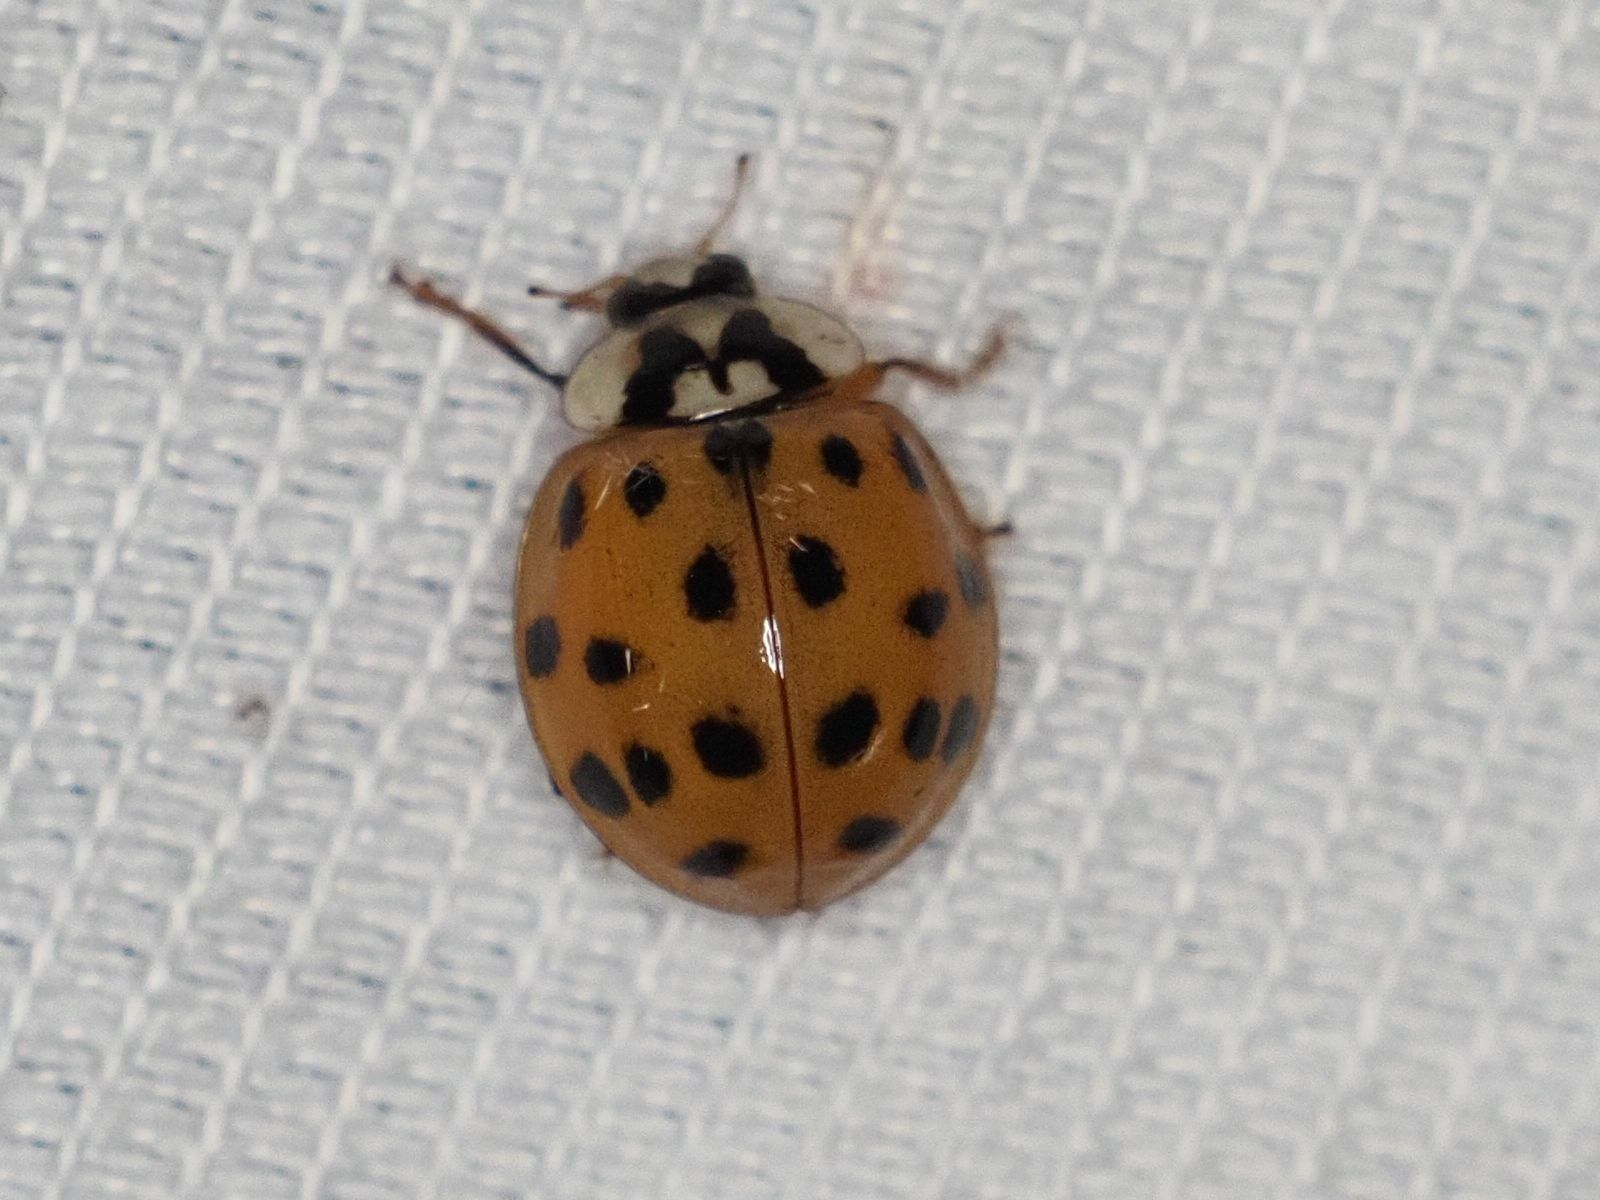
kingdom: Animalia
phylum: Arthropoda
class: Insecta
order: Coleoptera
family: Coccinellidae
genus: Harmonia
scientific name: Harmonia axyridis
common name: Harlequin ladybird
